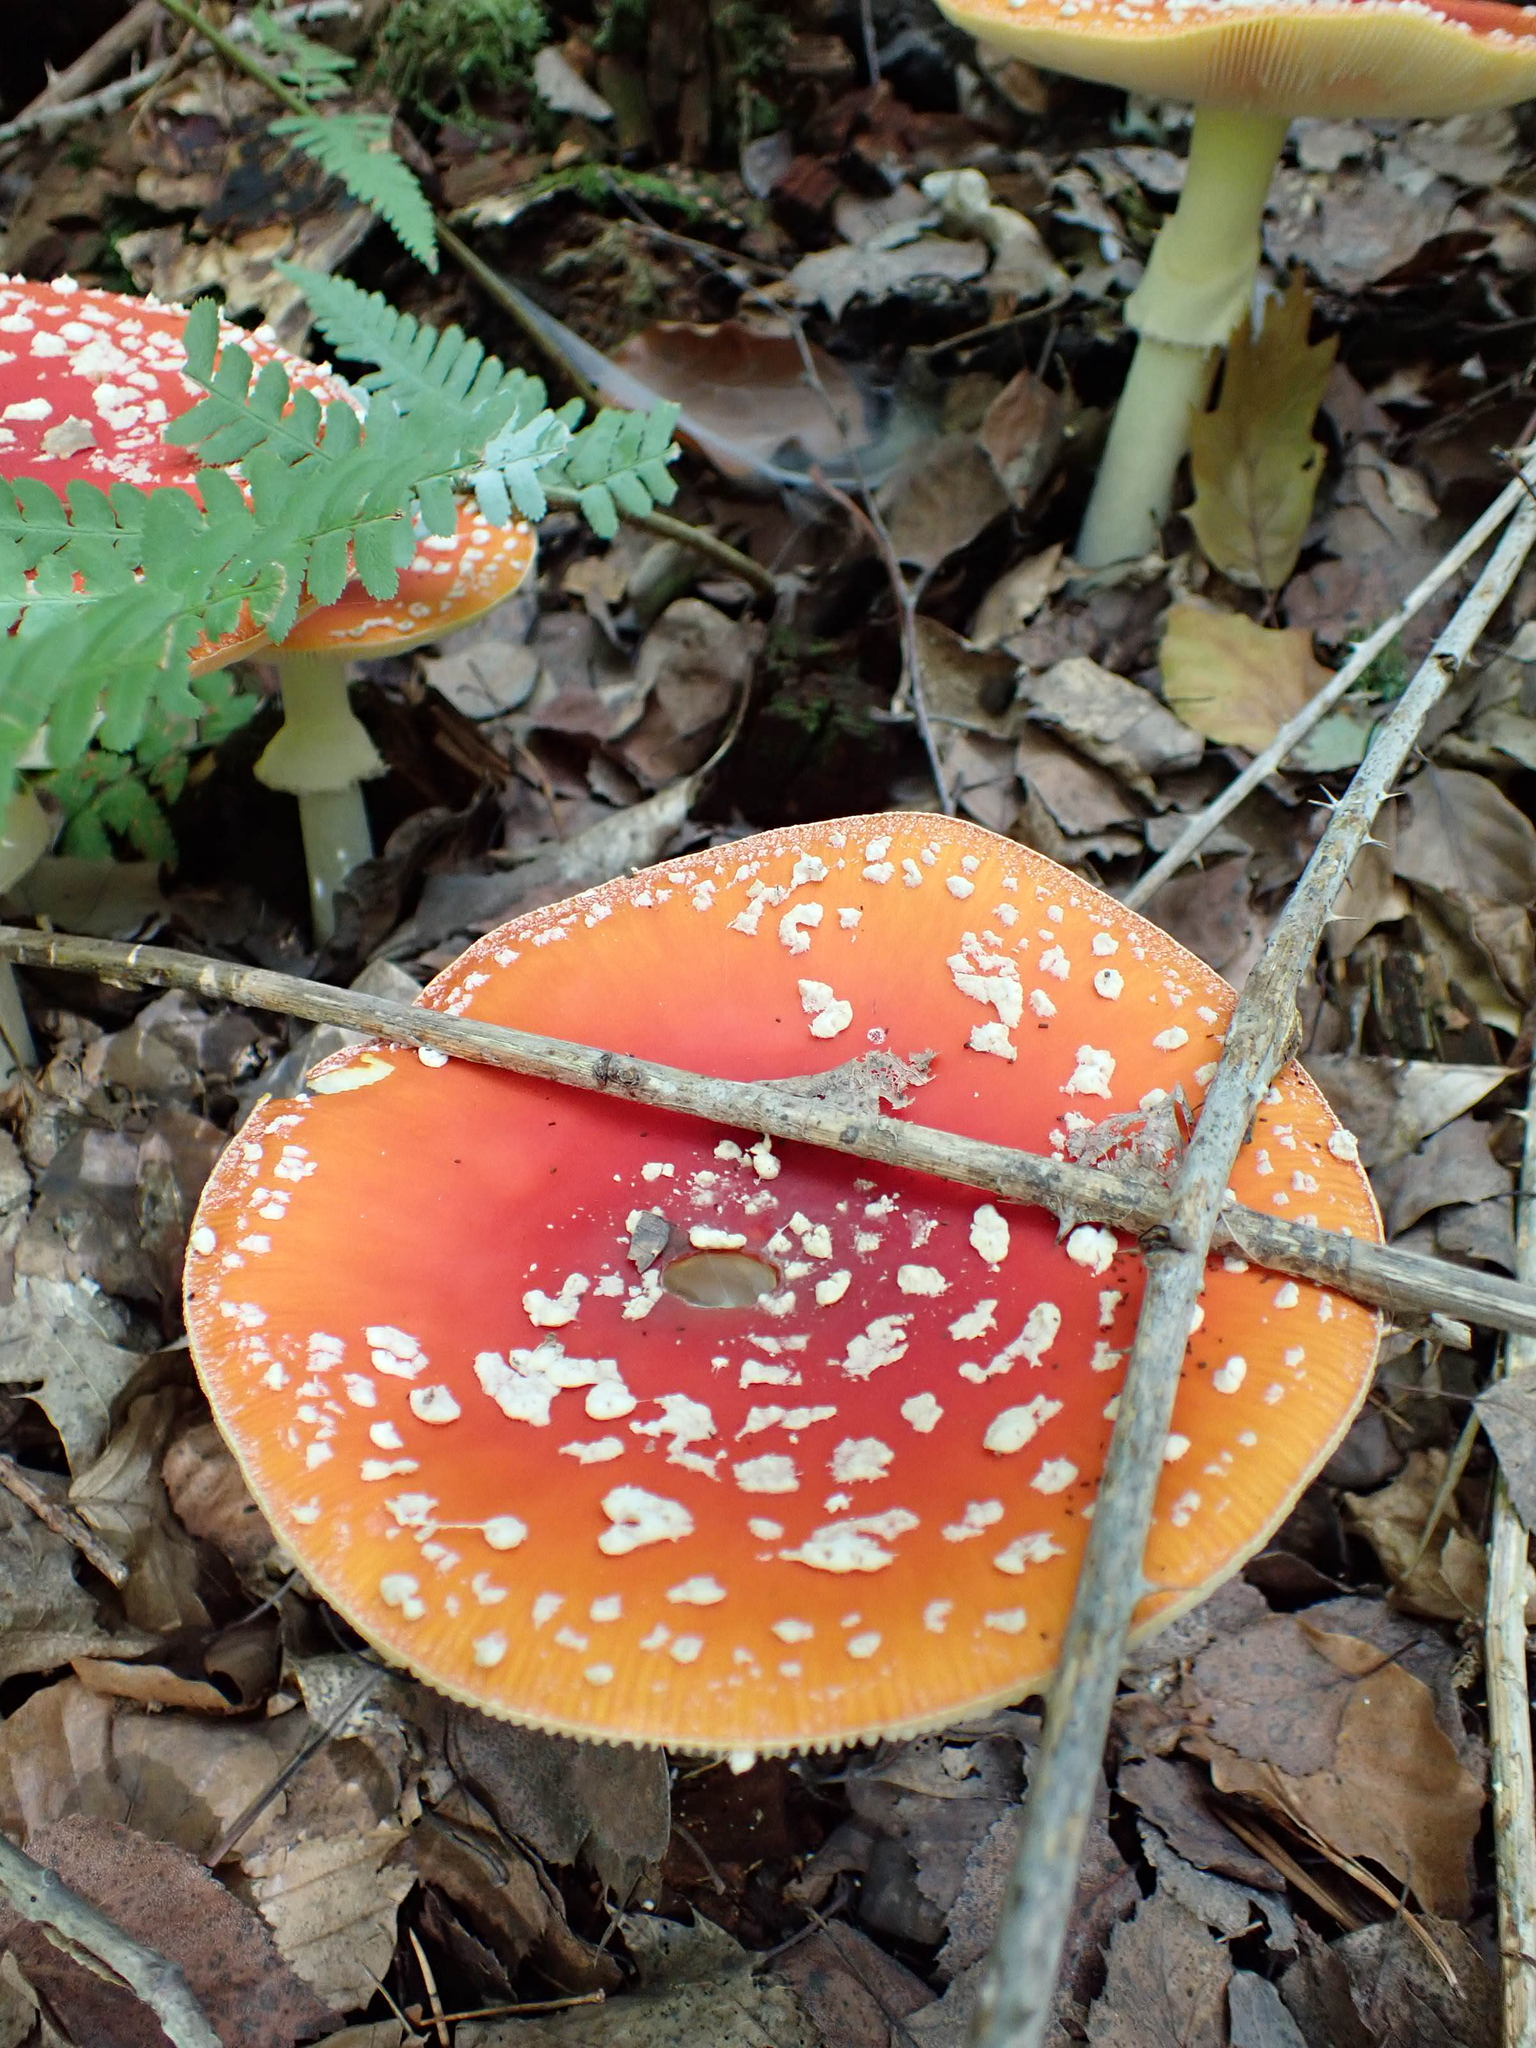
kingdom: Fungi
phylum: Basidiomycota
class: Agaricomycetes
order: Agaricales
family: Amanitaceae
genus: Amanita
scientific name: Amanita muscaria
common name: Fly agaric
